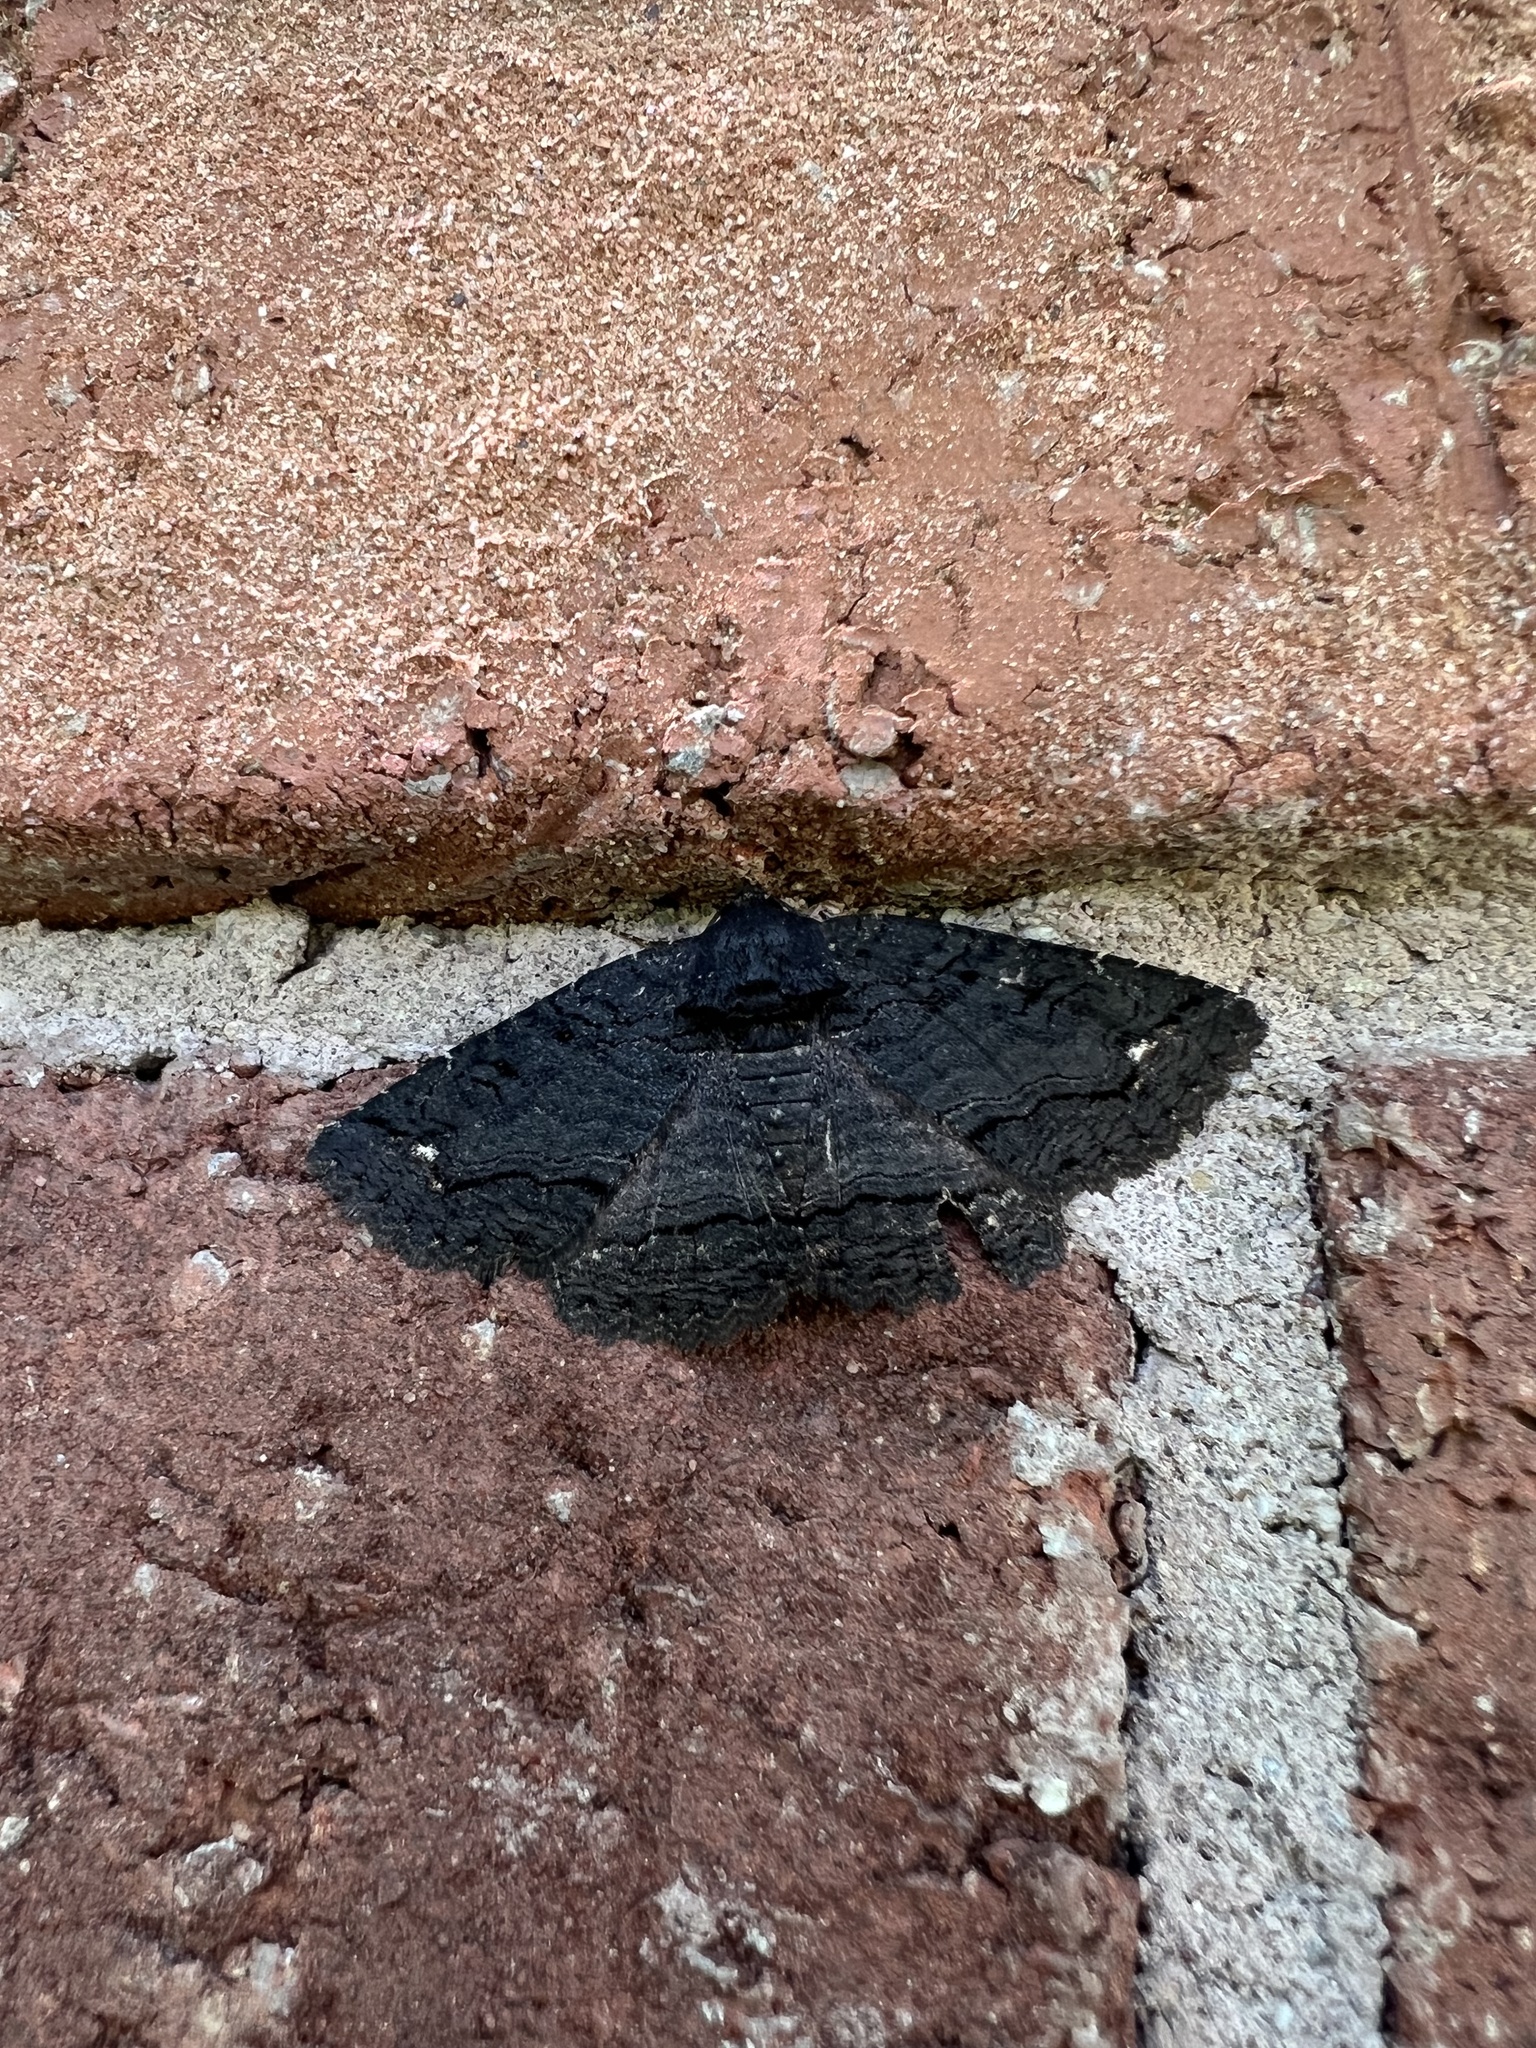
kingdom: Animalia
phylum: Arthropoda
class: Insecta
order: Lepidoptera
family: Erebidae
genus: Zale
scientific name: Zale undularis
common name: Black zale moth
